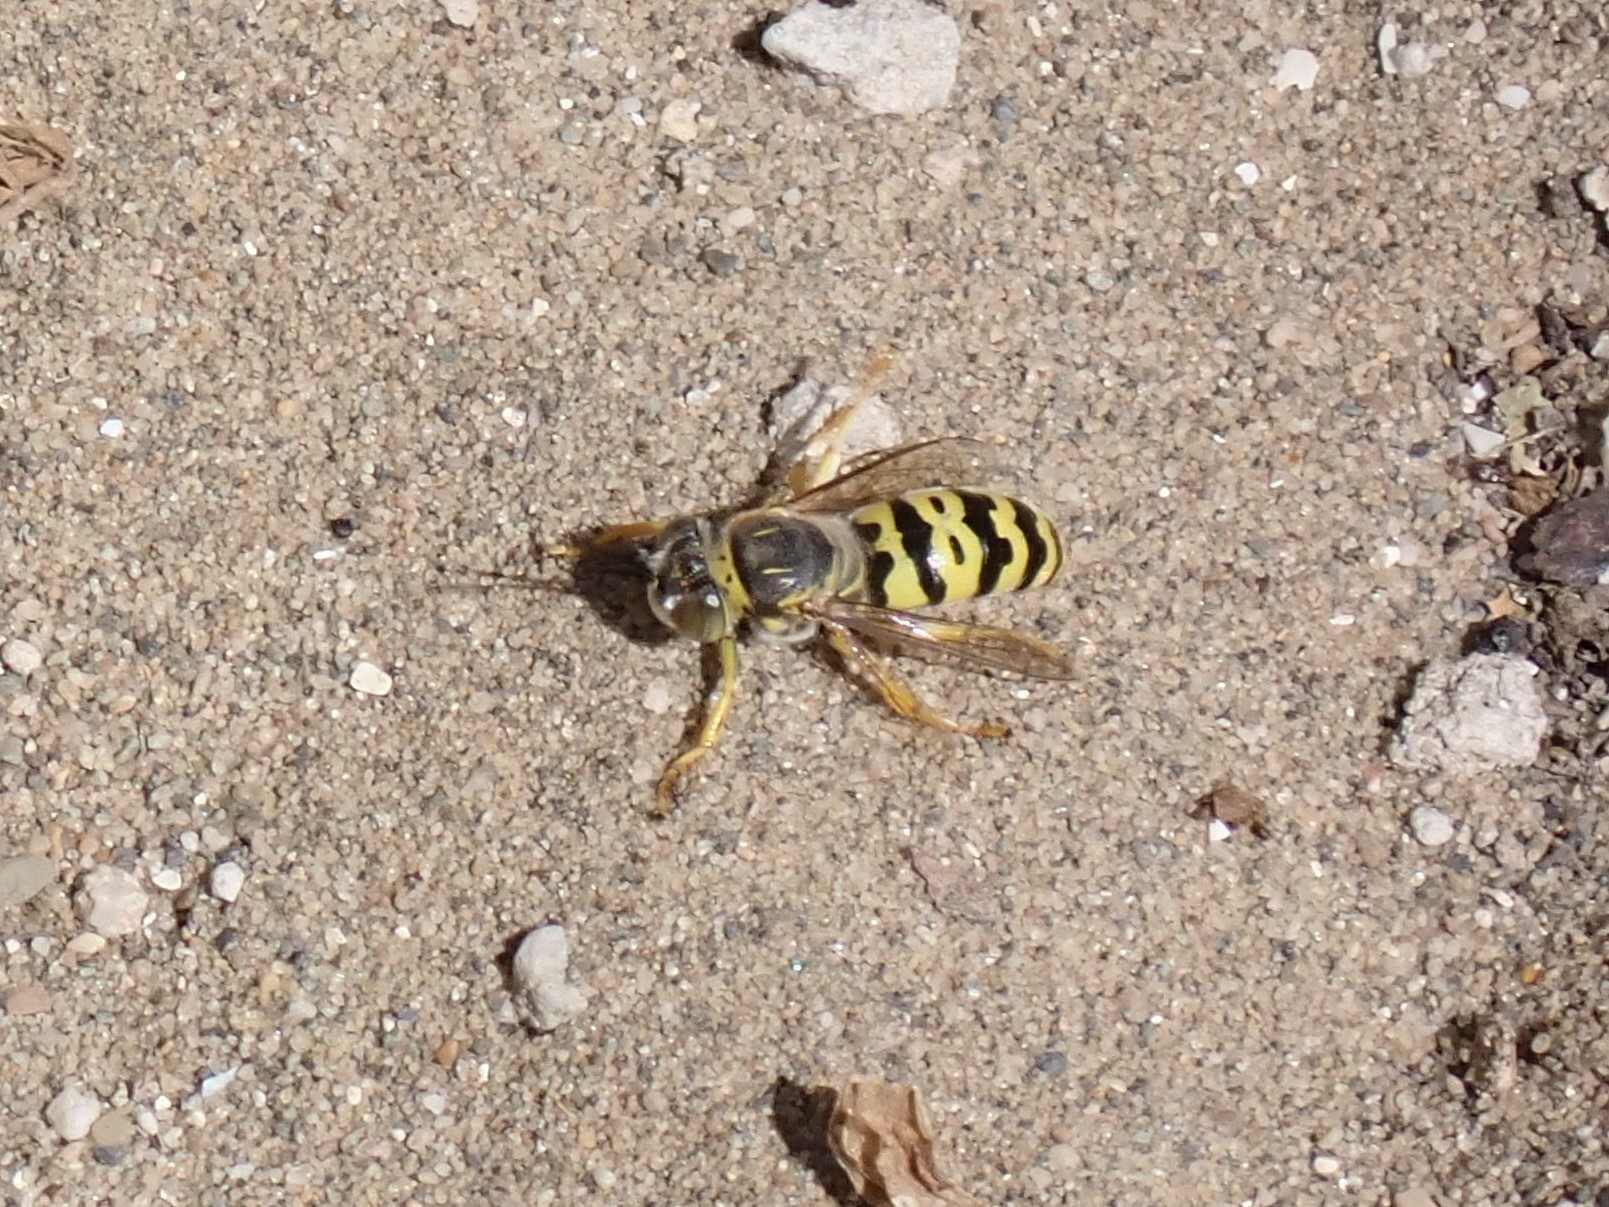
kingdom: Animalia
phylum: Arthropoda
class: Insecta
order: Hymenoptera
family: Crabronidae
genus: Bembix
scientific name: Bembix oculata
